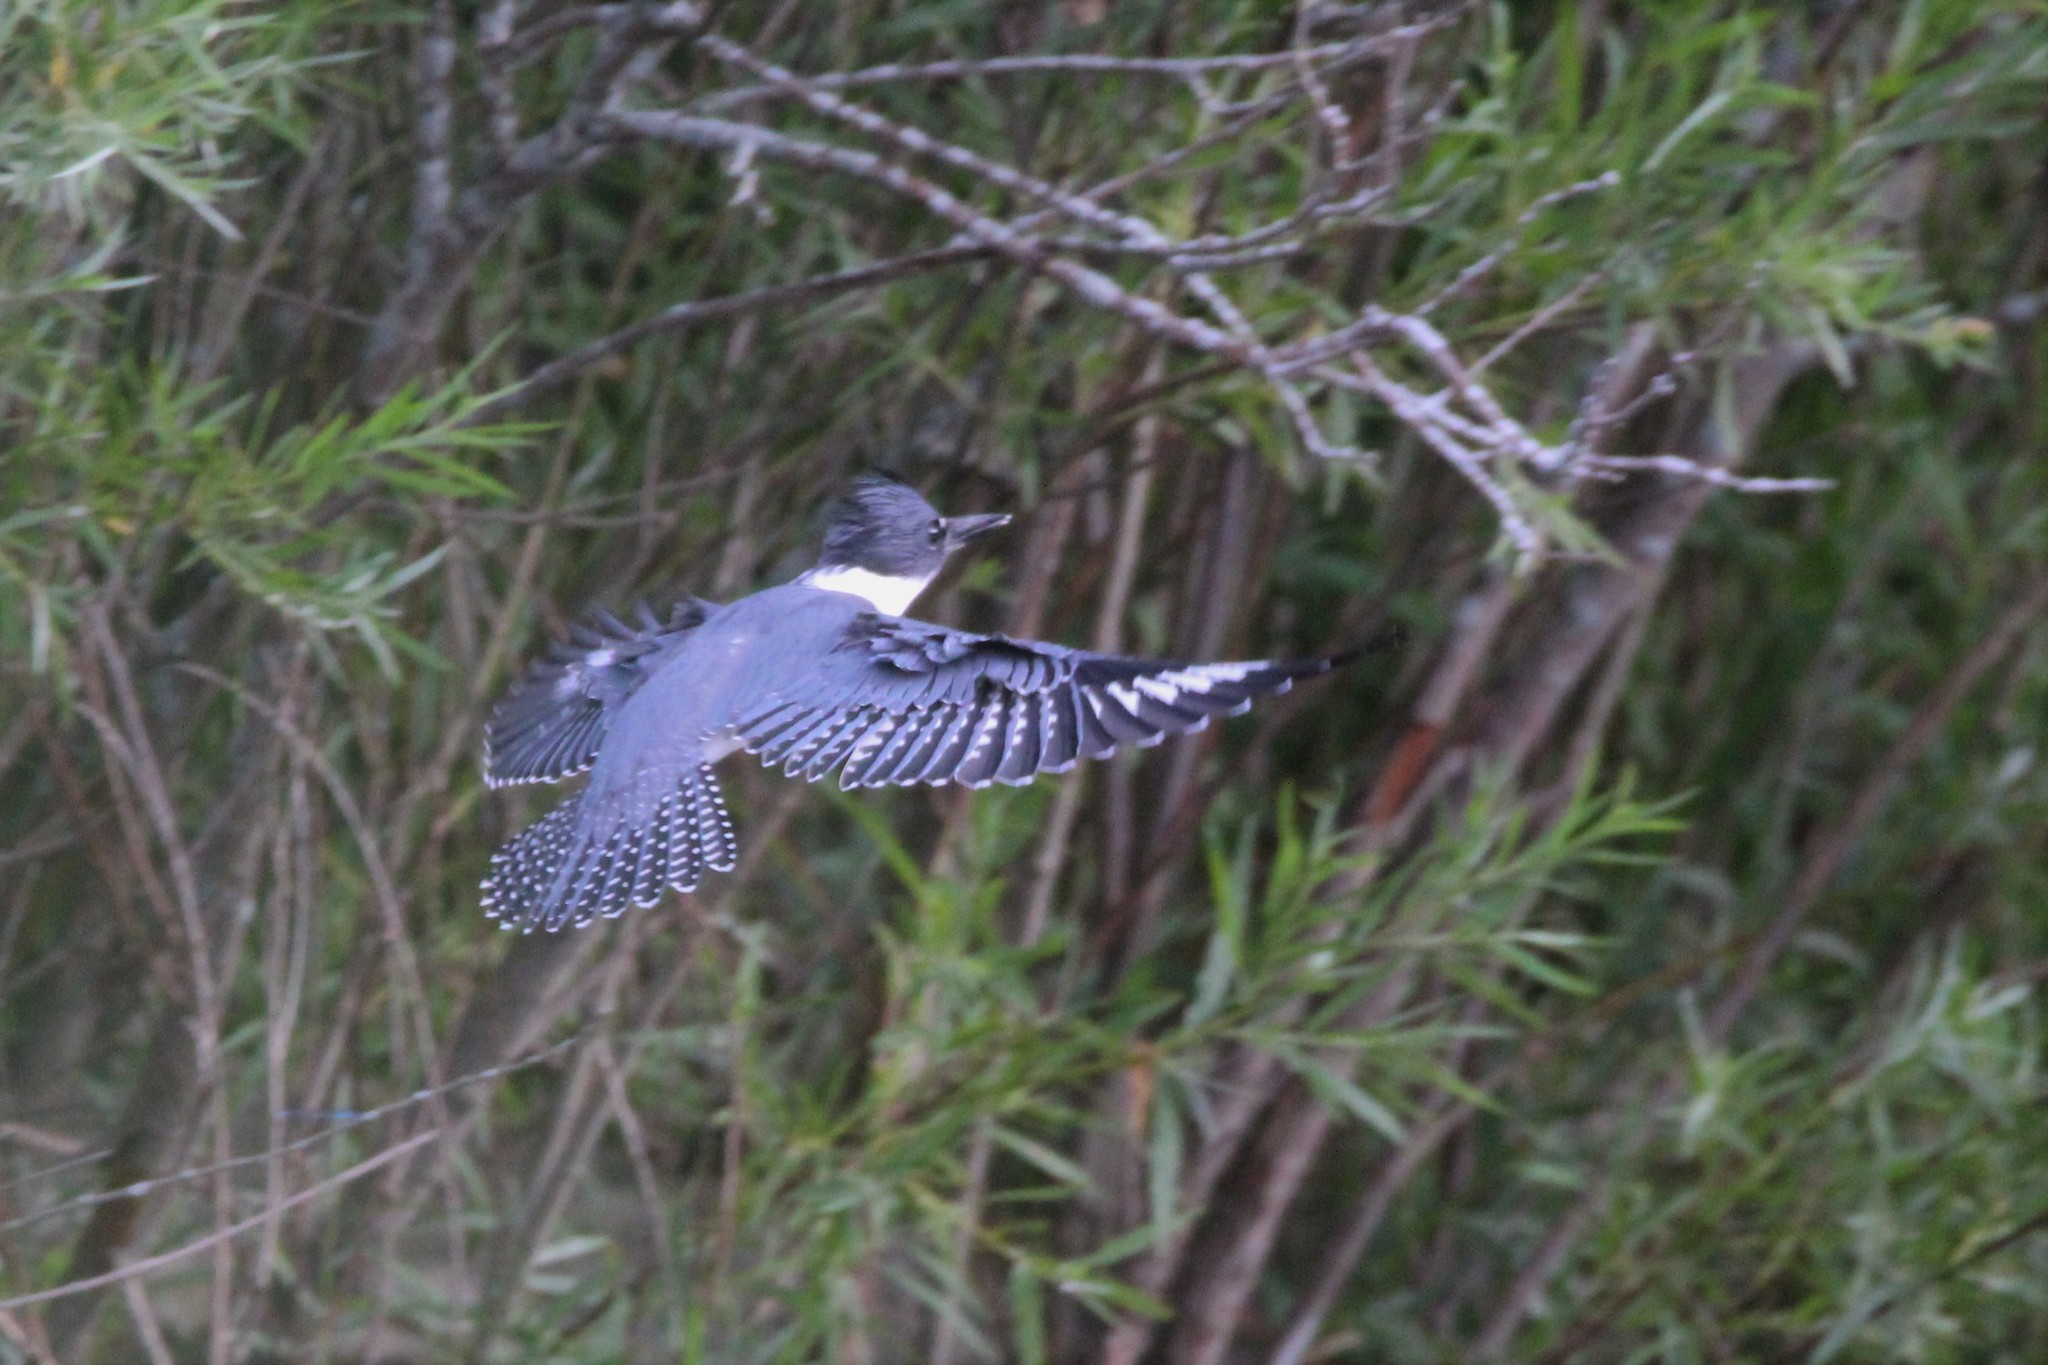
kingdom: Animalia
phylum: Chordata
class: Aves
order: Coraciiformes
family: Alcedinidae
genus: Megaceryle
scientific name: Megaceryle alcyon
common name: Belted kingfisher
